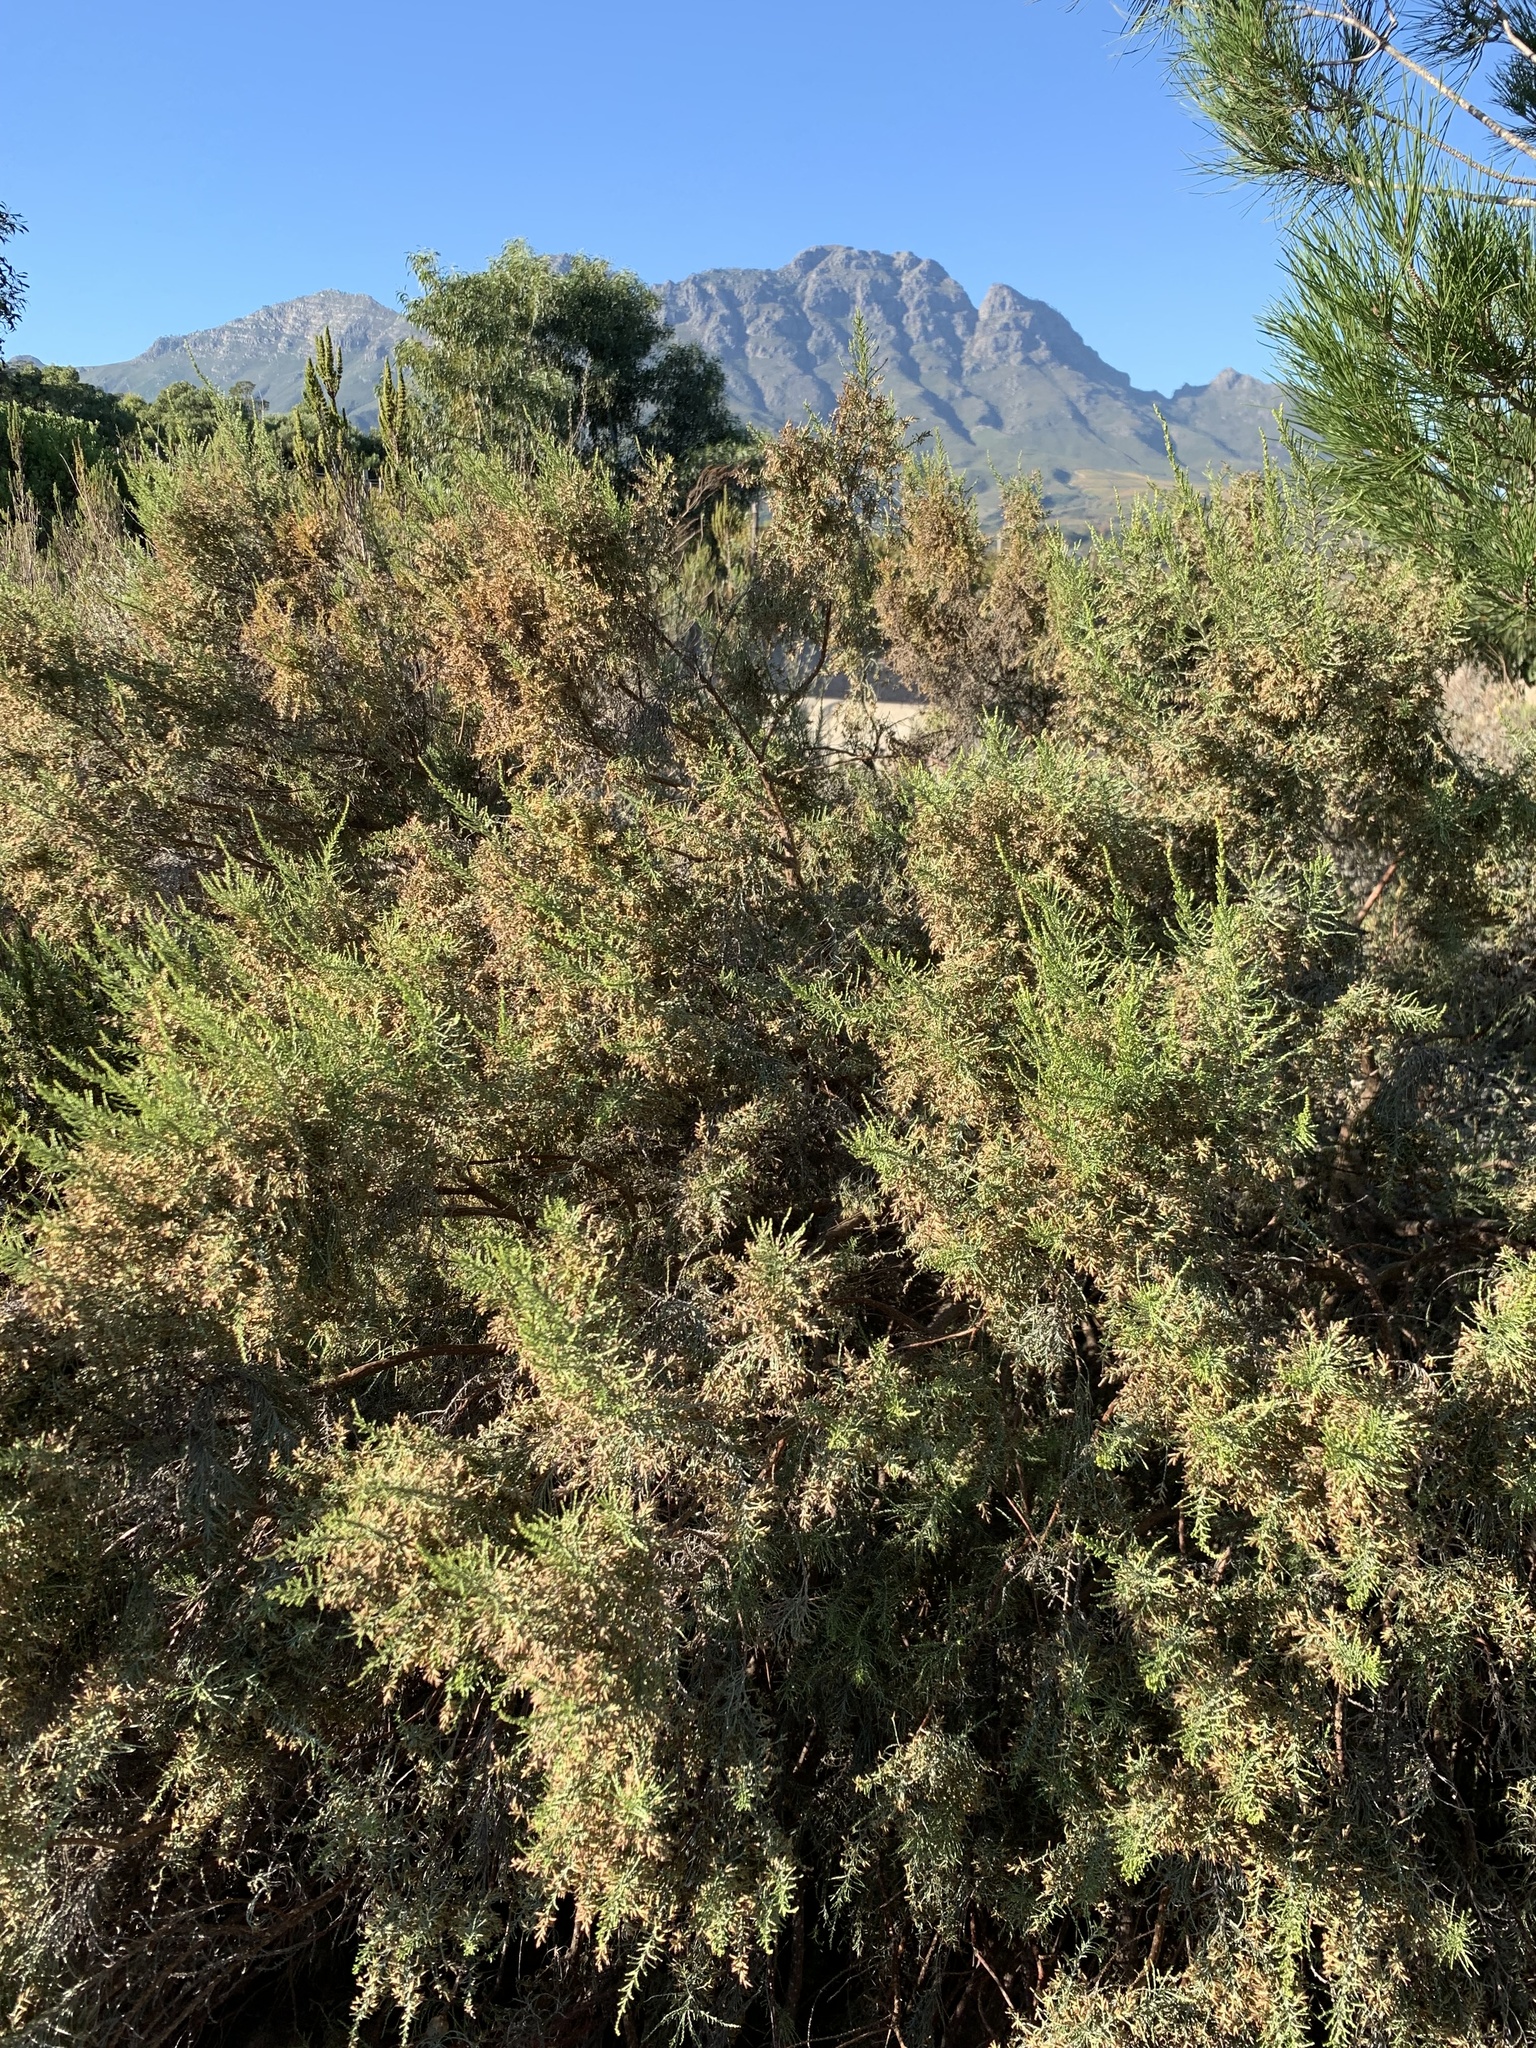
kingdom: Plantae
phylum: Tracheophyta
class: Magnoliopsida
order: Asterales
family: Asteraceae
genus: Dicerothamnus
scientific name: Dicerothamnus rhinocerotis
